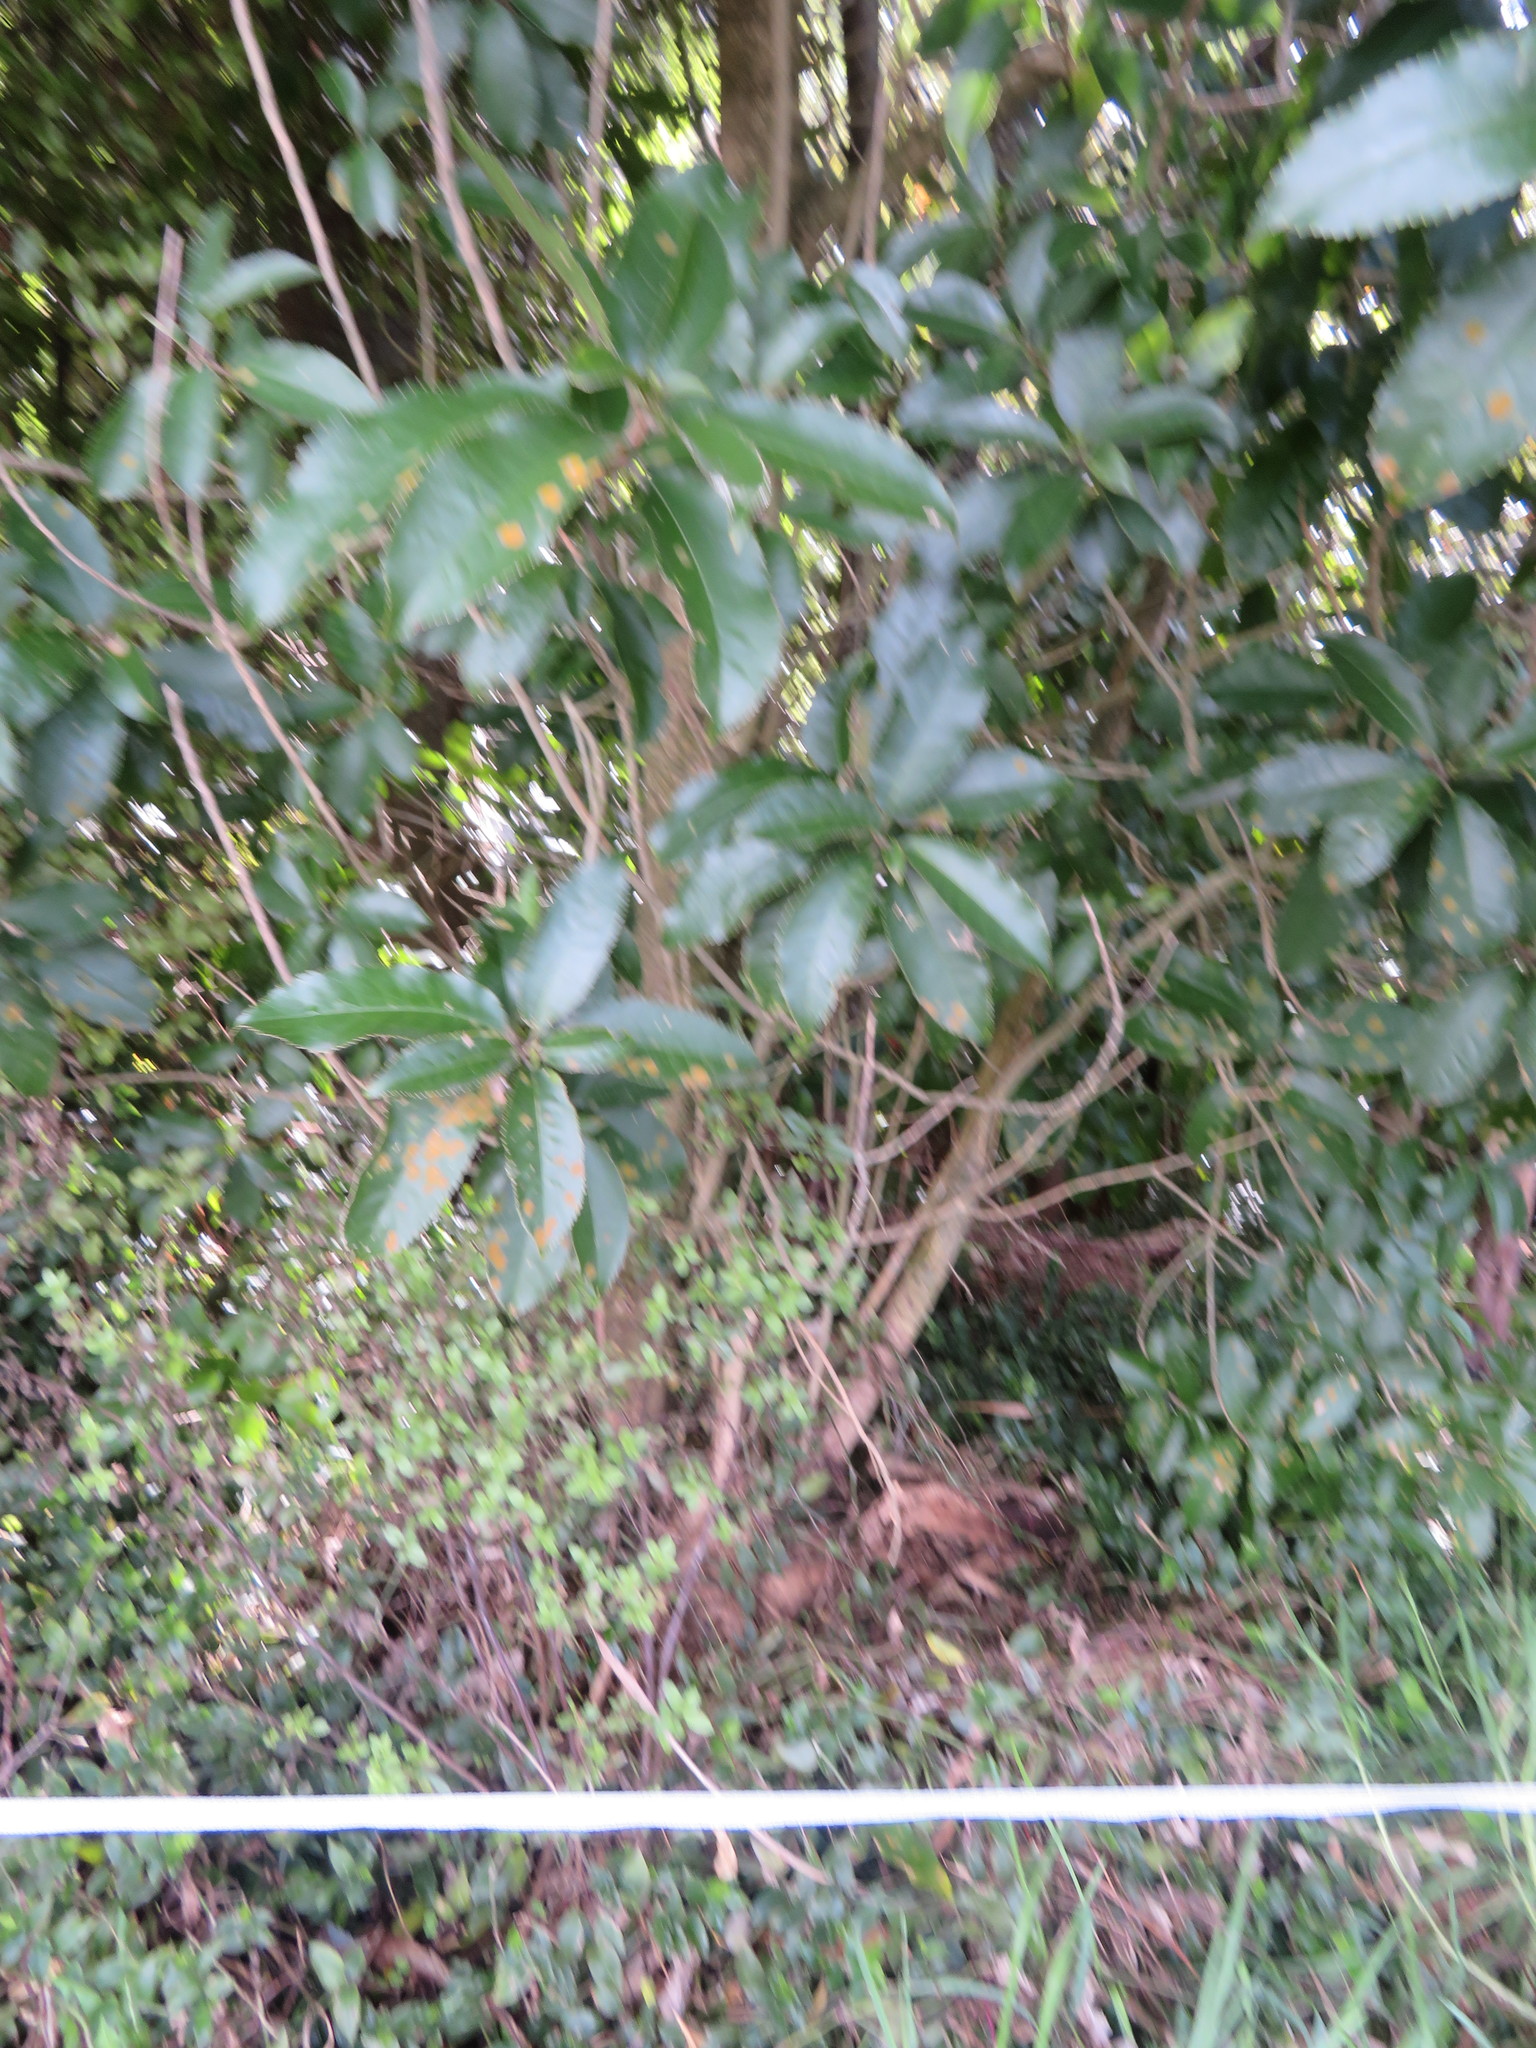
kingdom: Plantae
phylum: Tracheophyta
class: Magnoliopsida
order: Malpighiales
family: Violaceae
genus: Melicytus
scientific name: Melicytus ramiflorus
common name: Mahoe
